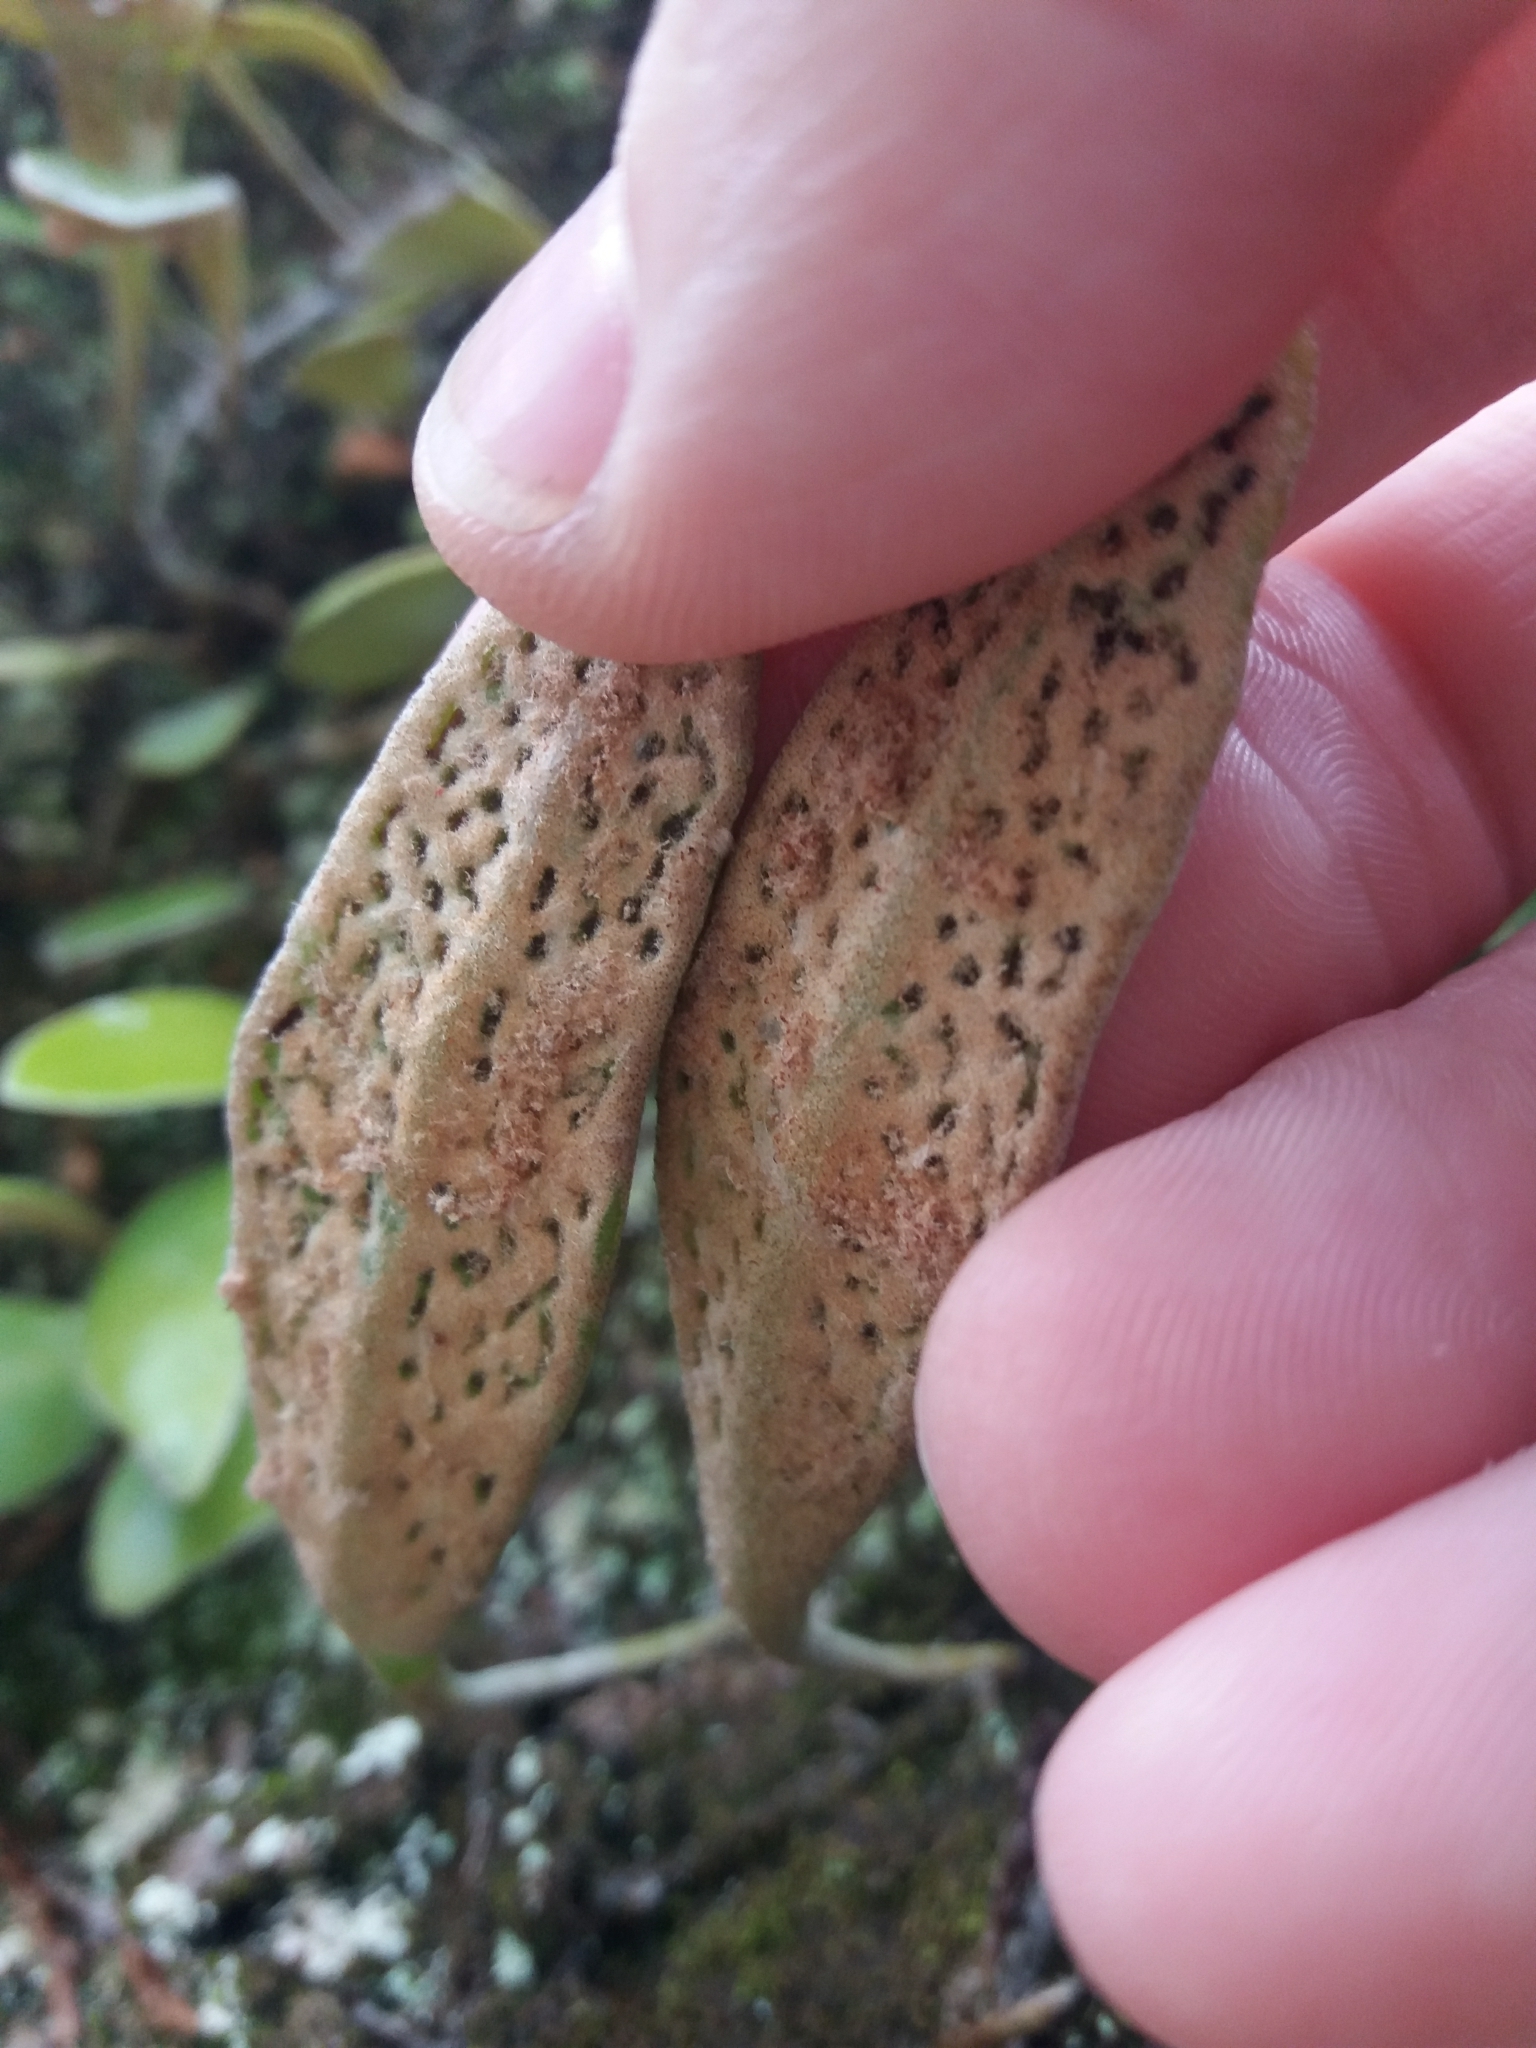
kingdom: Plantae
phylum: Tracheophyta
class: Polypodiopsida
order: Polypodiales
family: Polypodiaceae
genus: Pyrrosia
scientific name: Pyrrosia eleagnifolia
